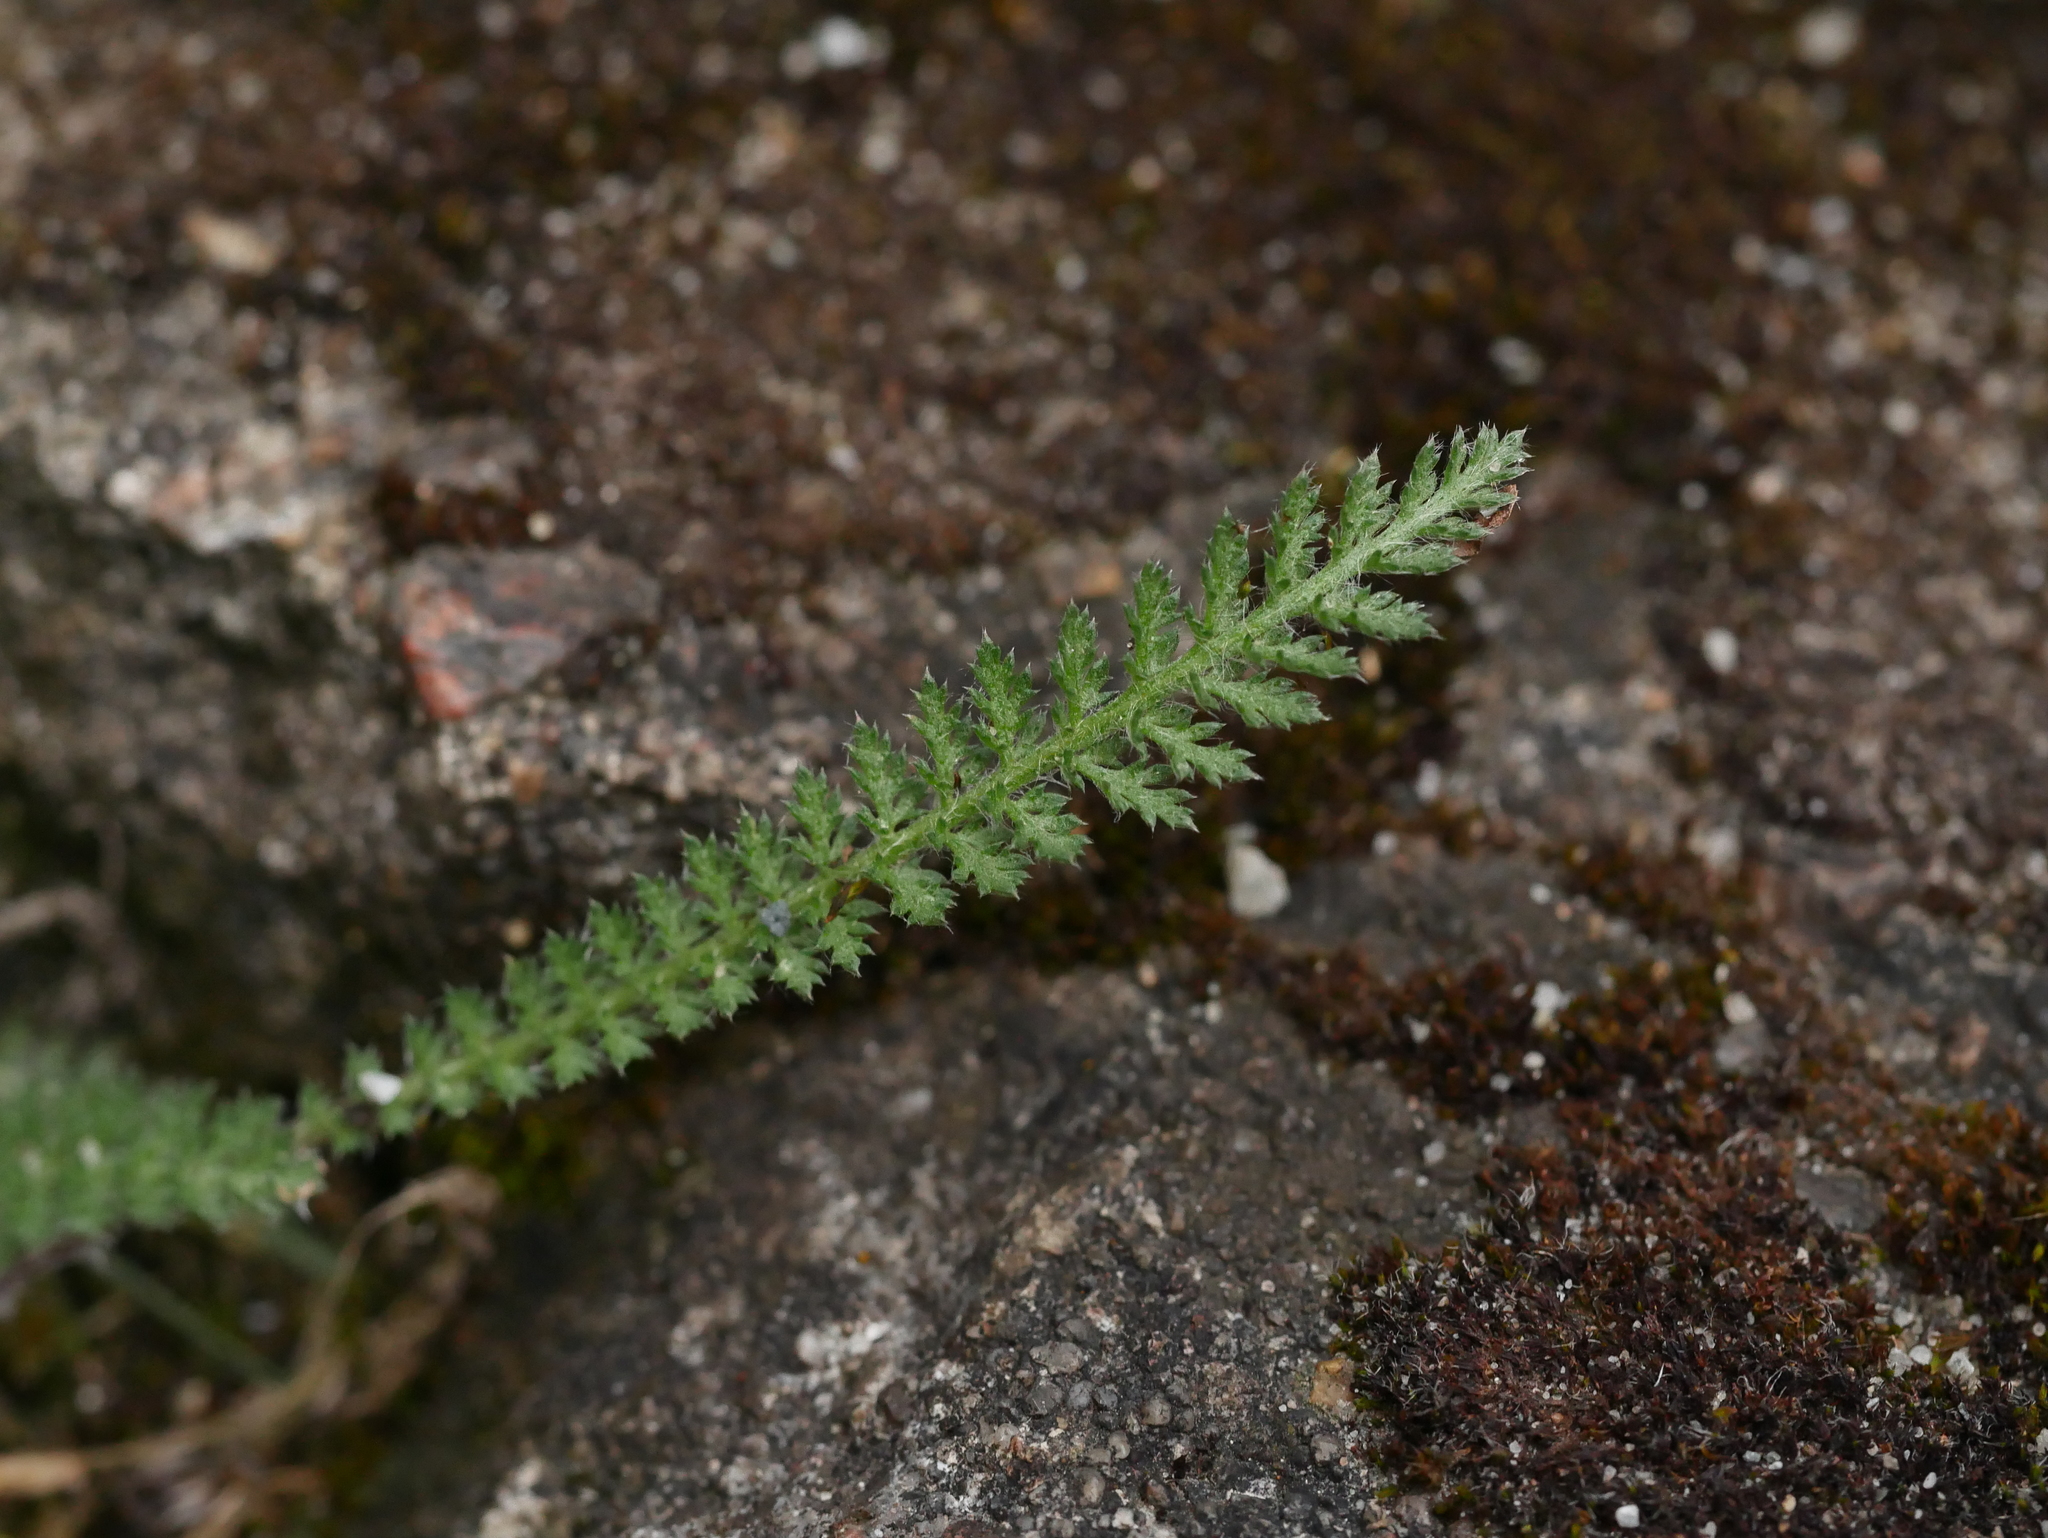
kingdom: Plantae
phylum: Tracheophyta
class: Magnoliopsida
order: Asterales
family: Asteraceae
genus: Achillea
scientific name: Achillea millefolium
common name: Yarrow
